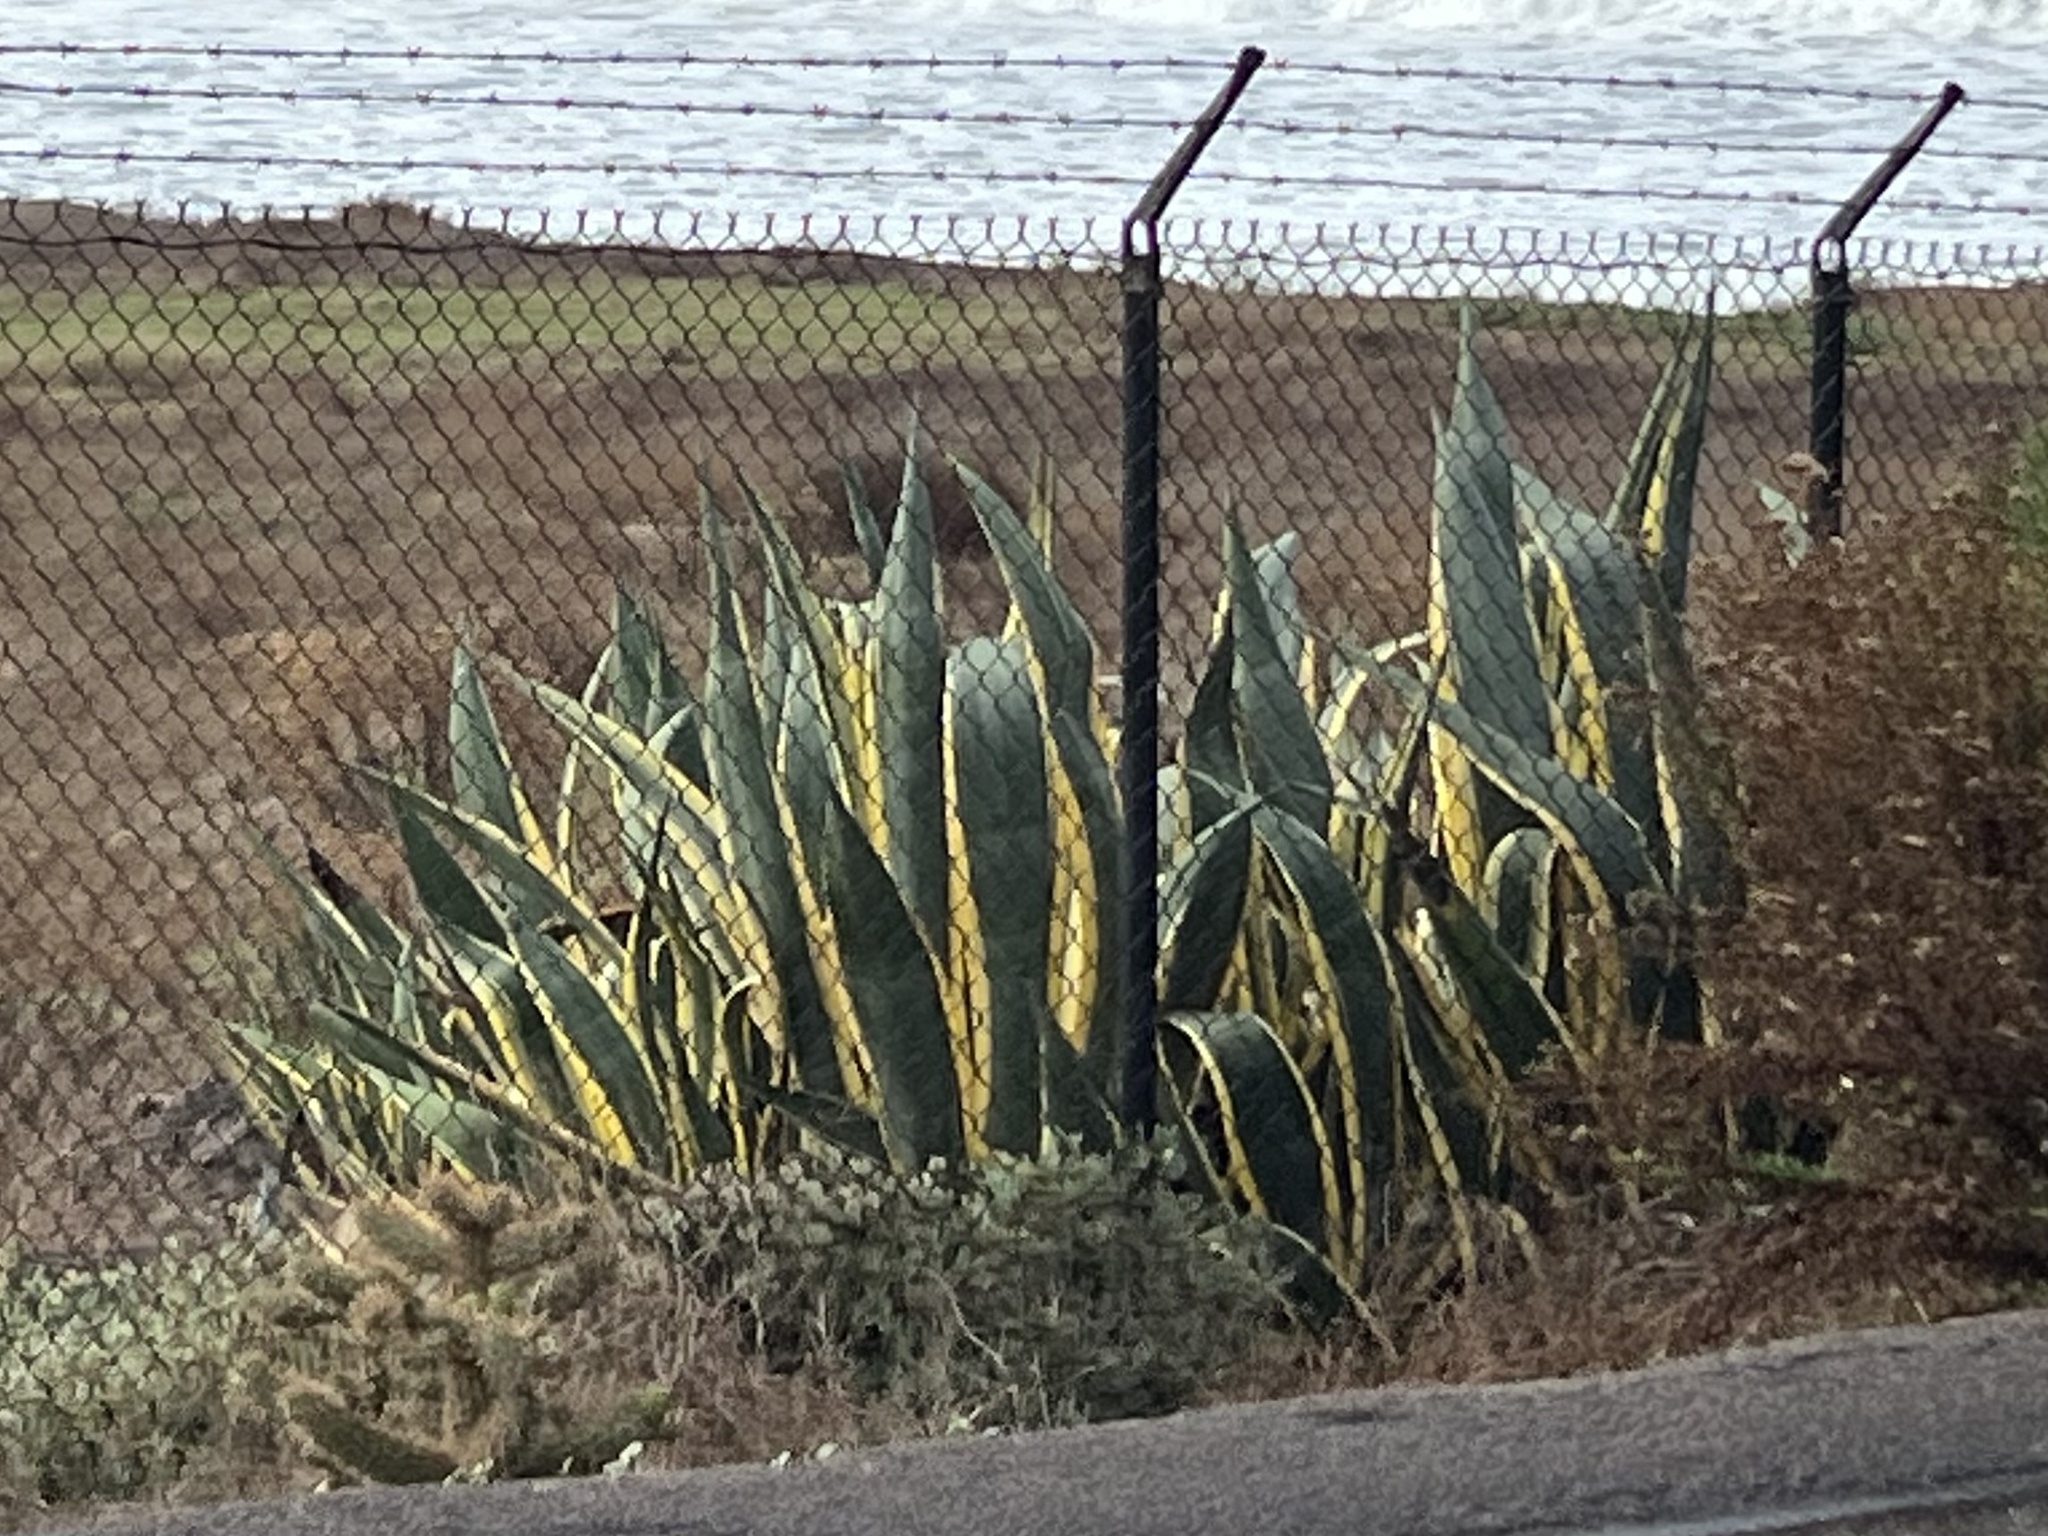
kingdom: Plantae
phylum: Tracheophyta
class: Liliopsida
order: Asparagales
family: Asparagaceae
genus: Agave
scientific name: Agave americana
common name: Centuryplant
